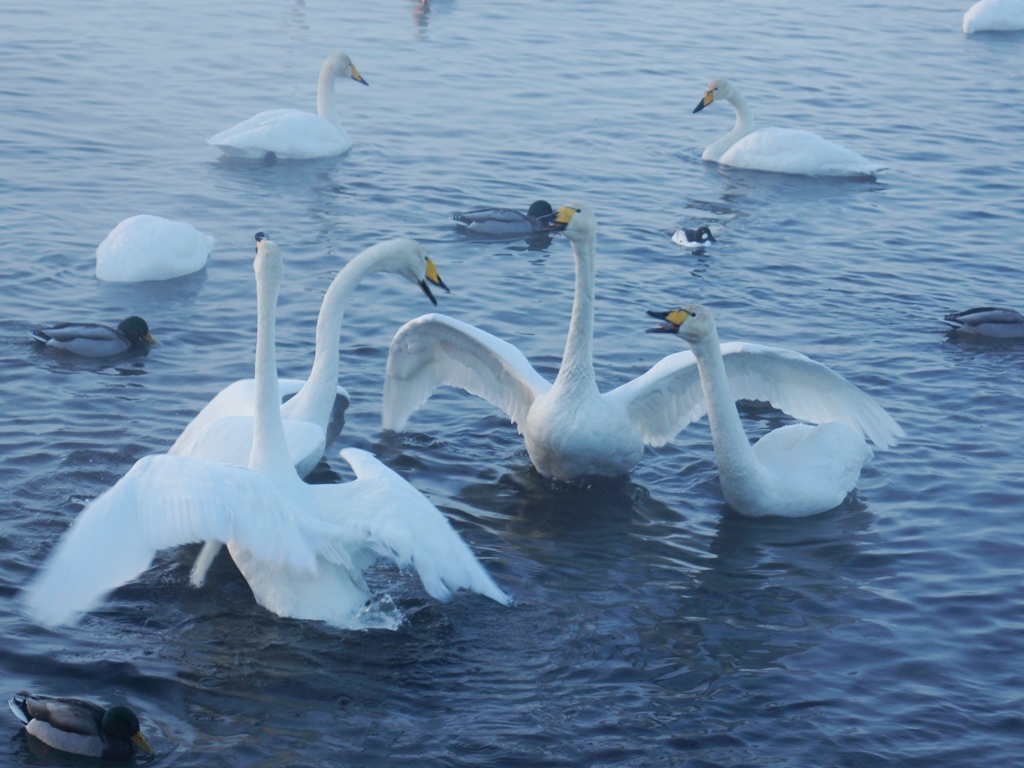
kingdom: Animalia
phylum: Chordata
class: Aves
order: Anseriformes
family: Anatidae
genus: Cygnus
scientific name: Cygnus cygnus
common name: Whooper swan
